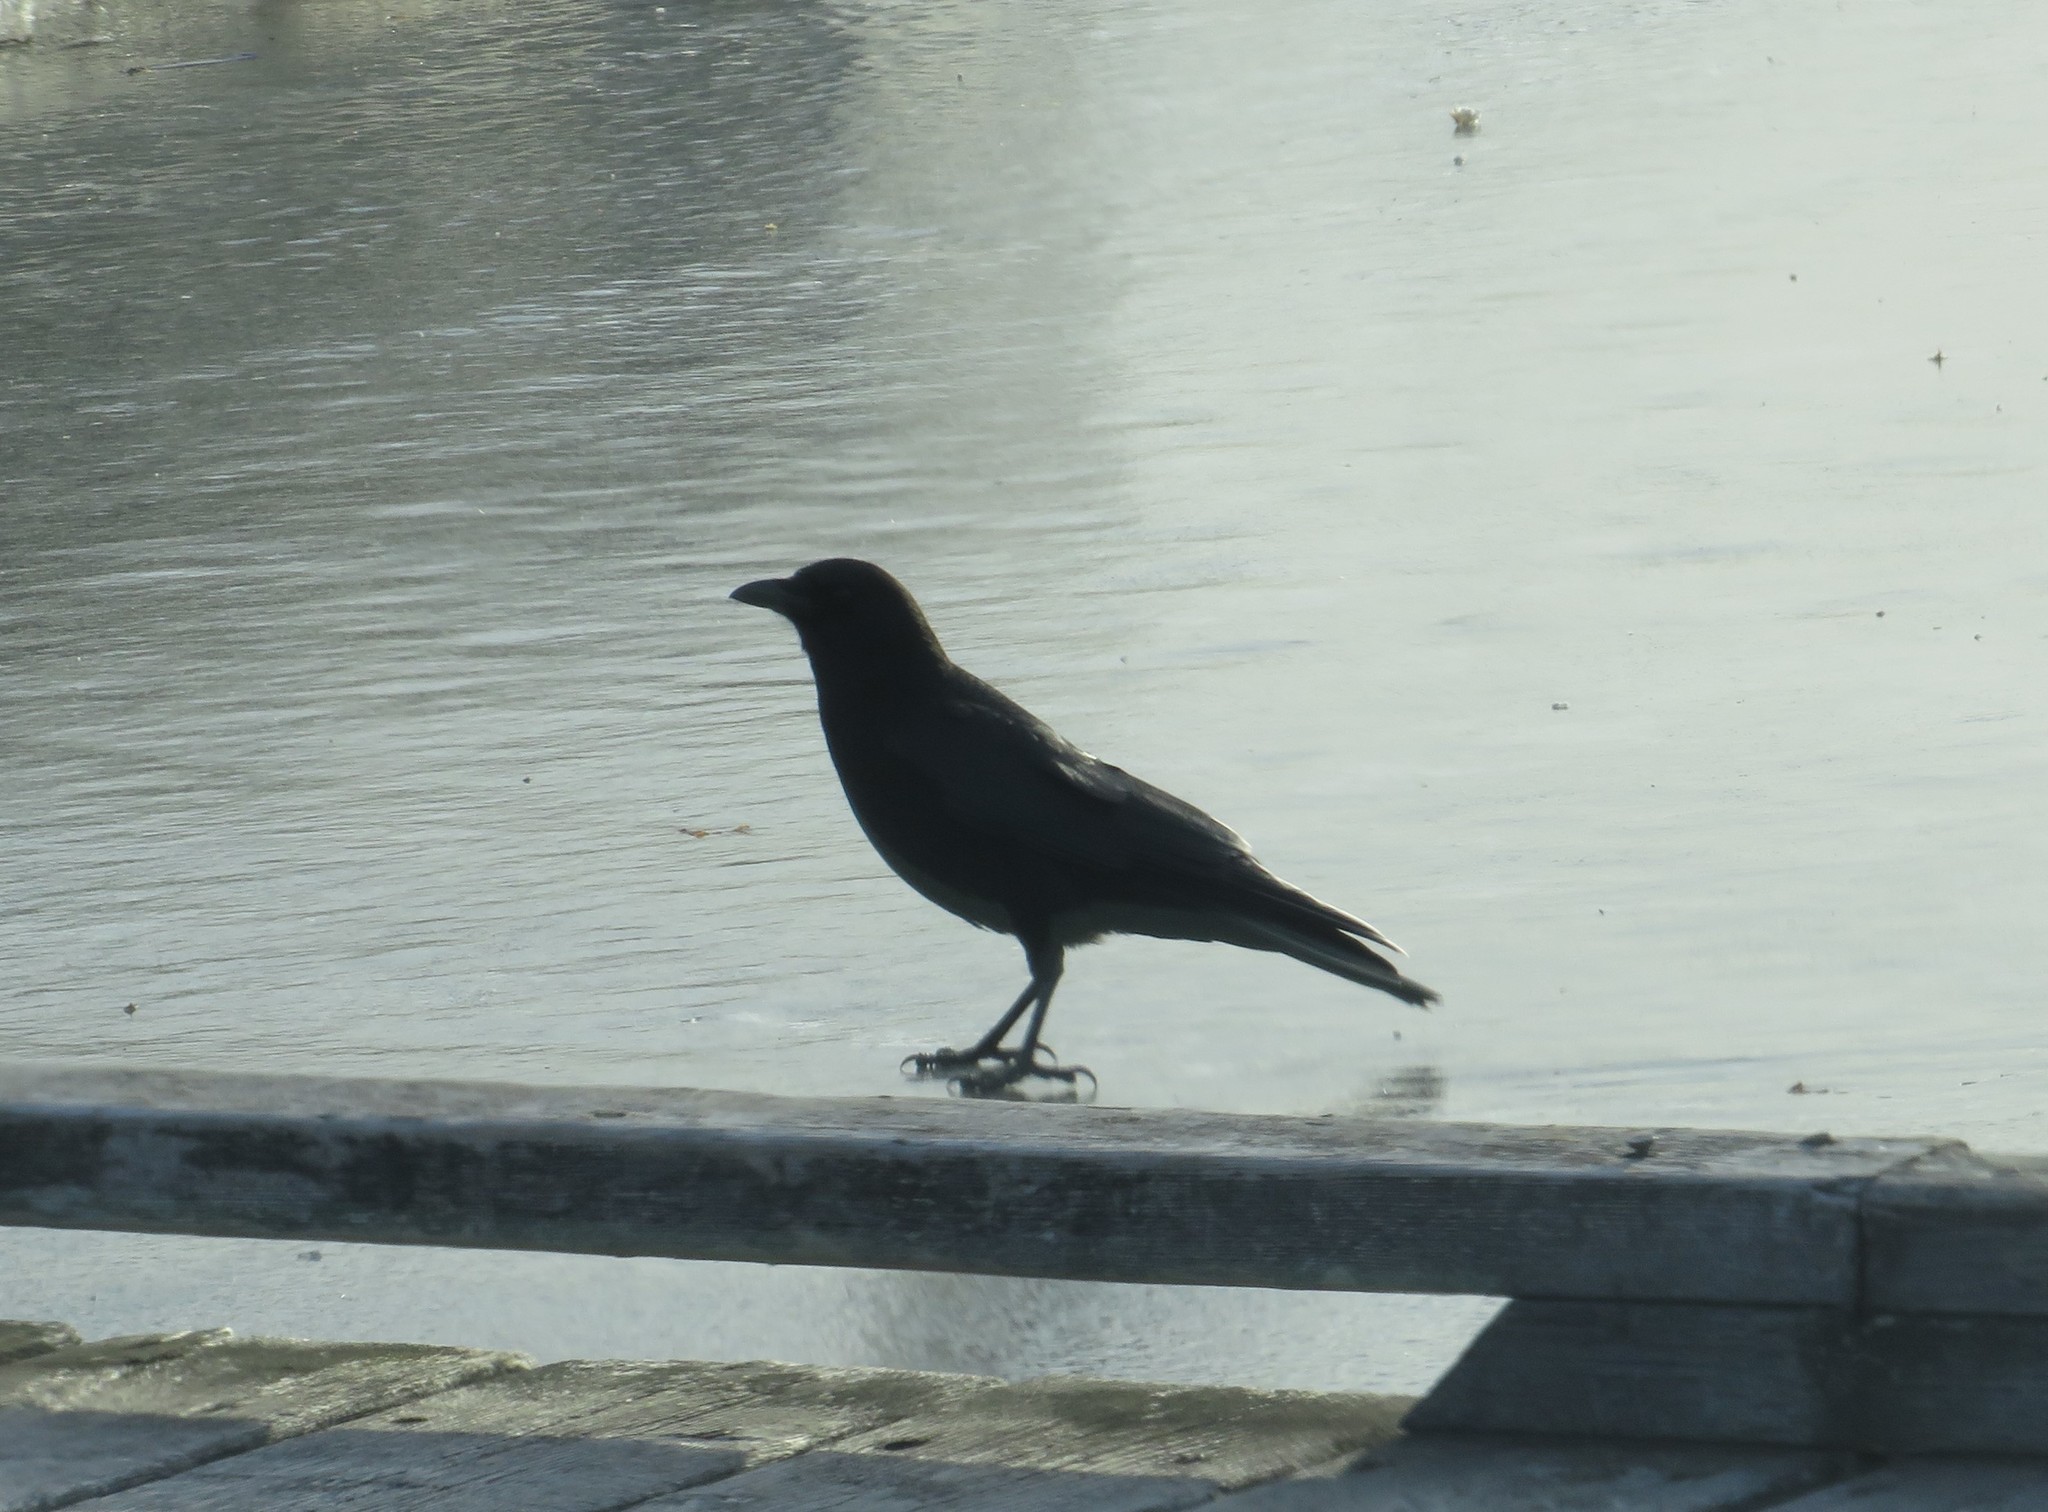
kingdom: Animalia
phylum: Chordata
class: Aves
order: Passeriformes
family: Corvidae
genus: Corvus
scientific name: Corvus brachyrhynchos
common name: American crow
